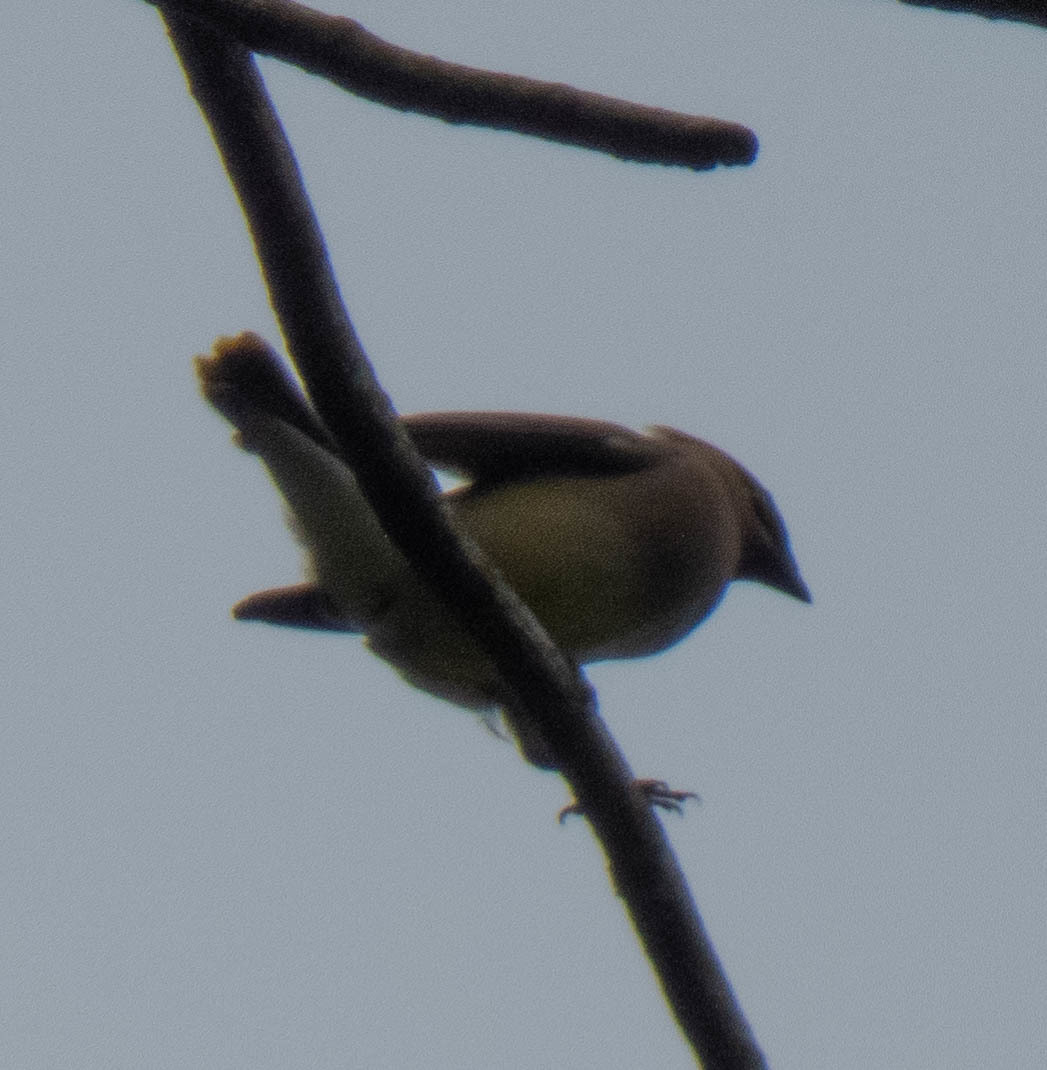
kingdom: Animalia
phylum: Chordata
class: Aves
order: Passeriformes
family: Bombycillidae
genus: Bombycilla
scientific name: Bombycilla cedrorum
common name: Cedar waxwing
